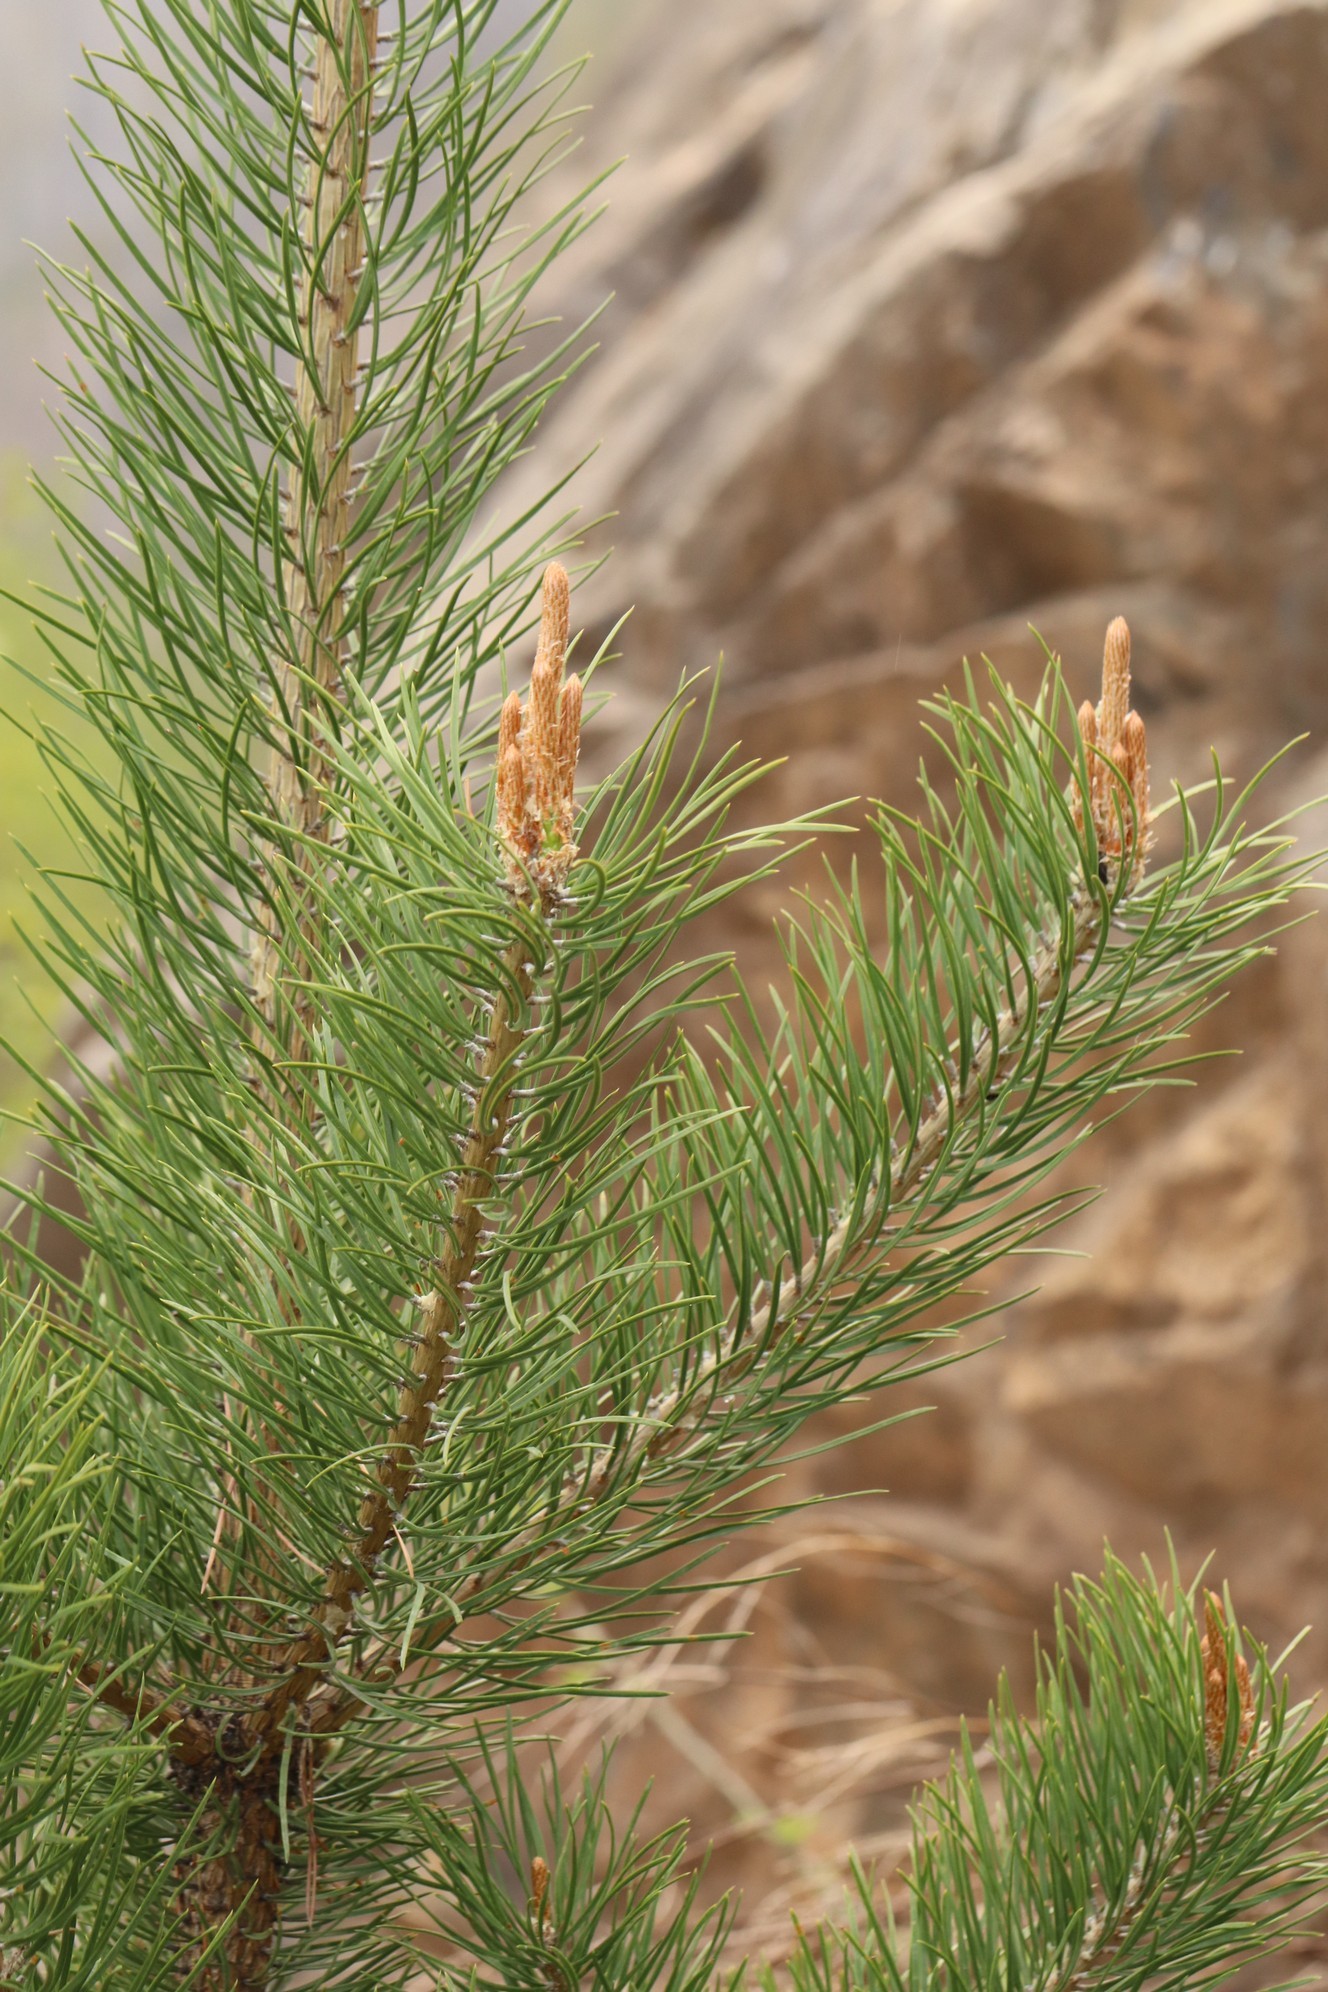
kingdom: Plantae
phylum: Tracheophyta
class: Pinopsida
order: Pinales
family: Pinaceae
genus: Pinus
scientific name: Pinus sylvestris
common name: Scots pine
